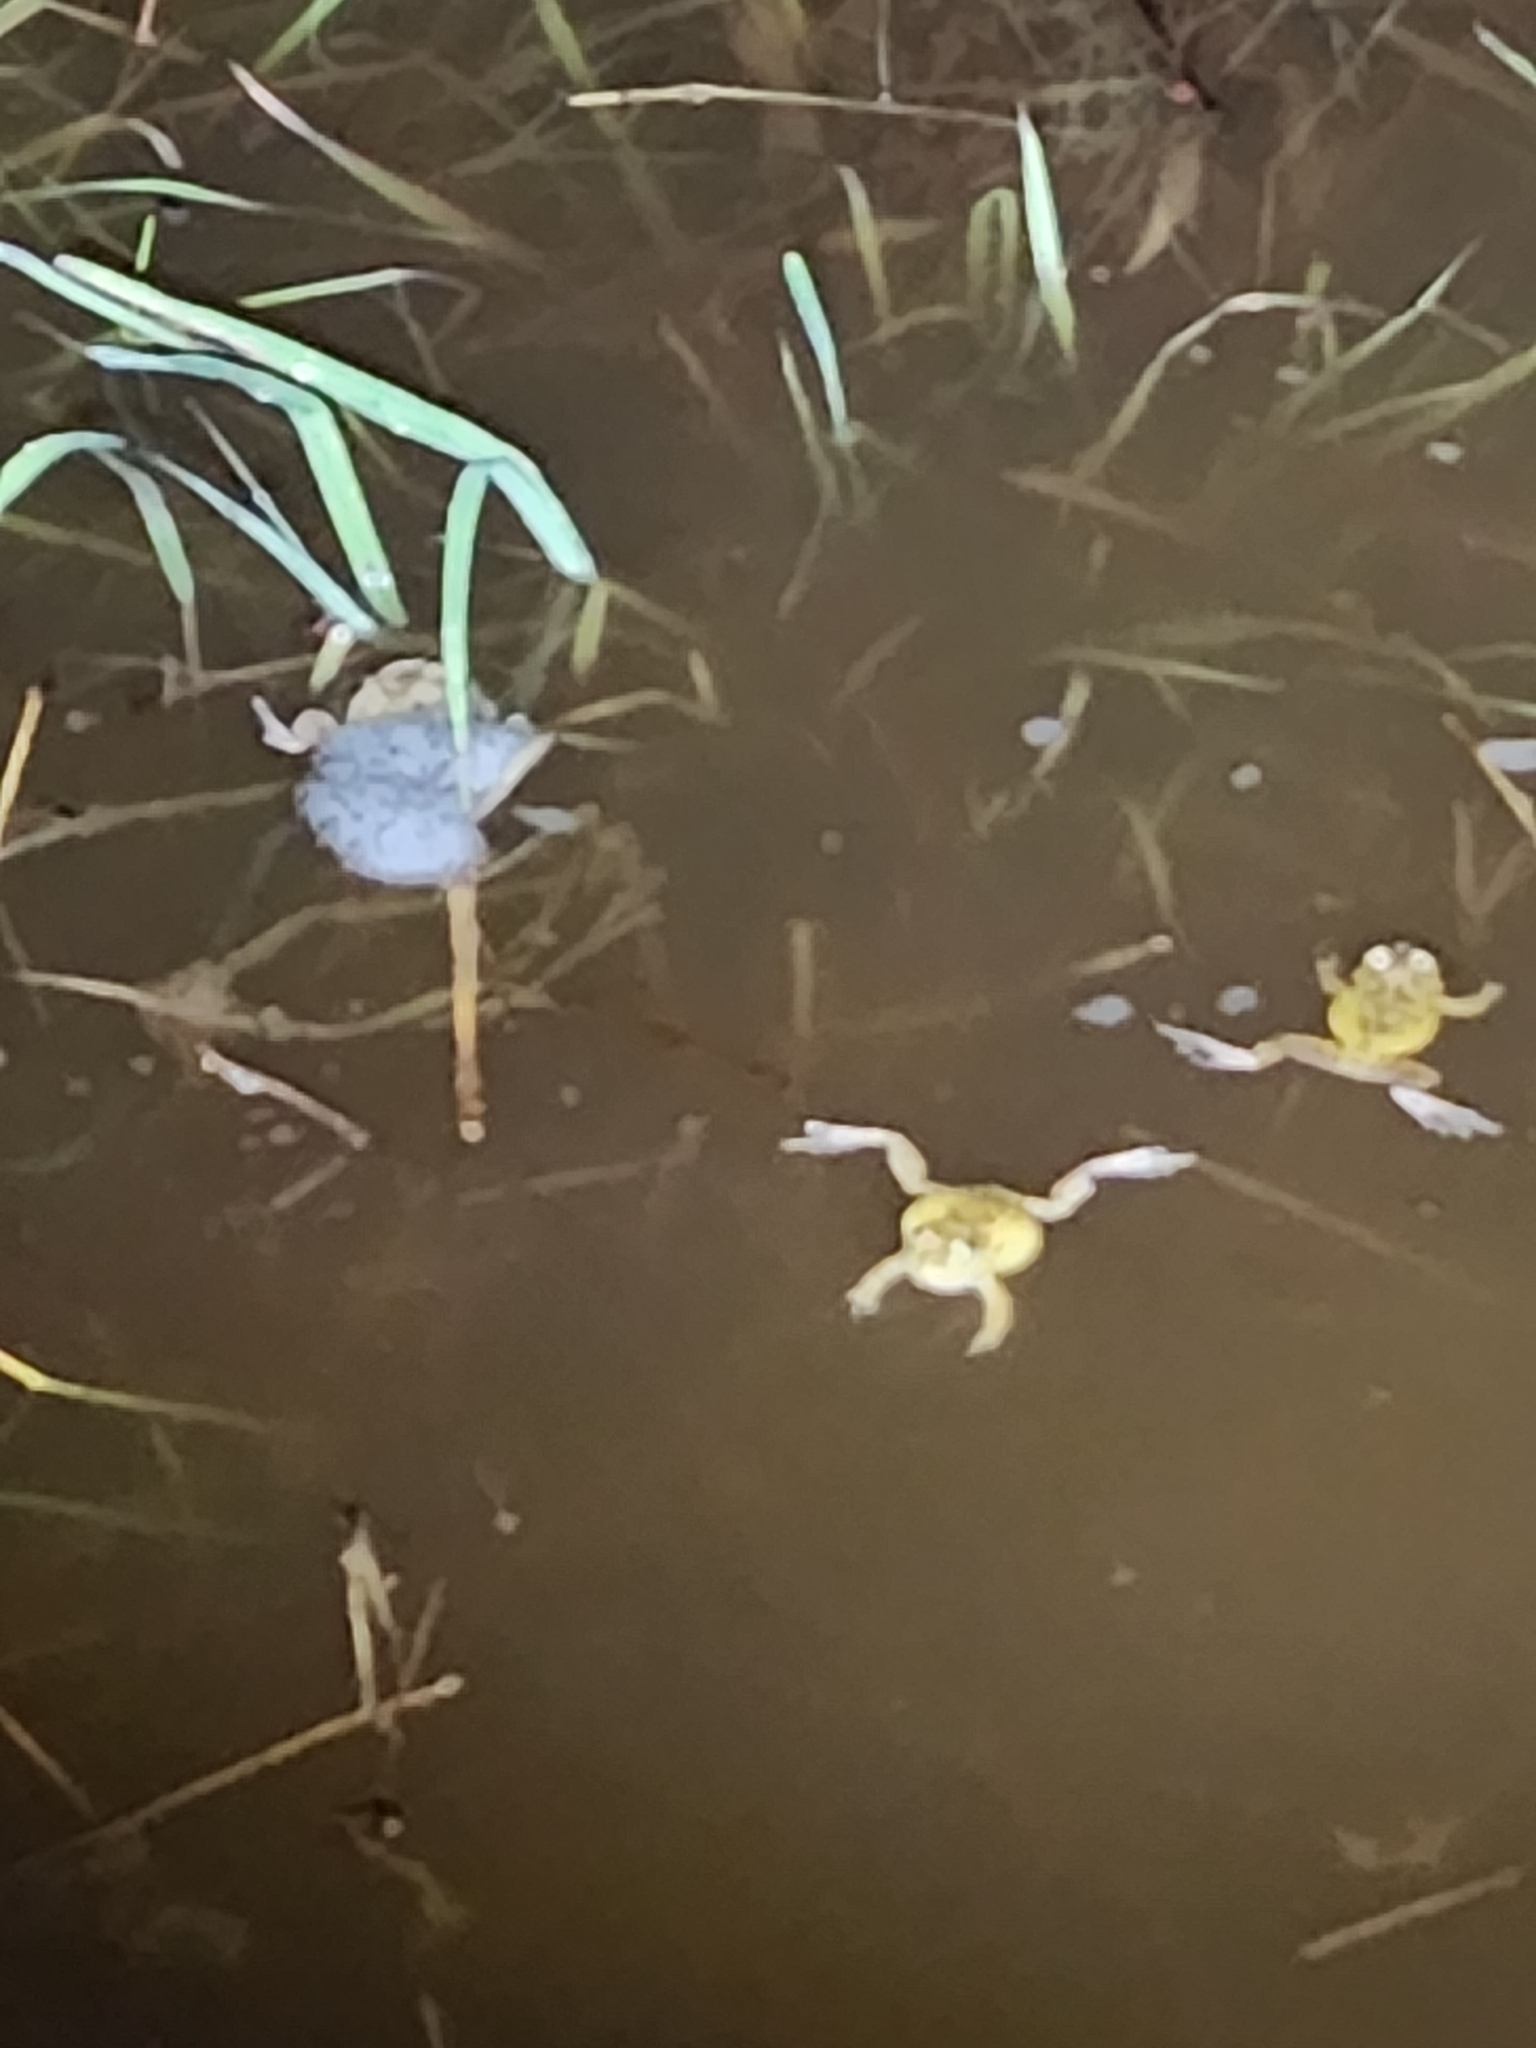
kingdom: Animalia
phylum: Chordata
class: Amphibia
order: Anura
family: Limnodynastidae
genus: Platyplectrum
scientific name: Platyplectrum ornatum
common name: Ornate burrowing frog
